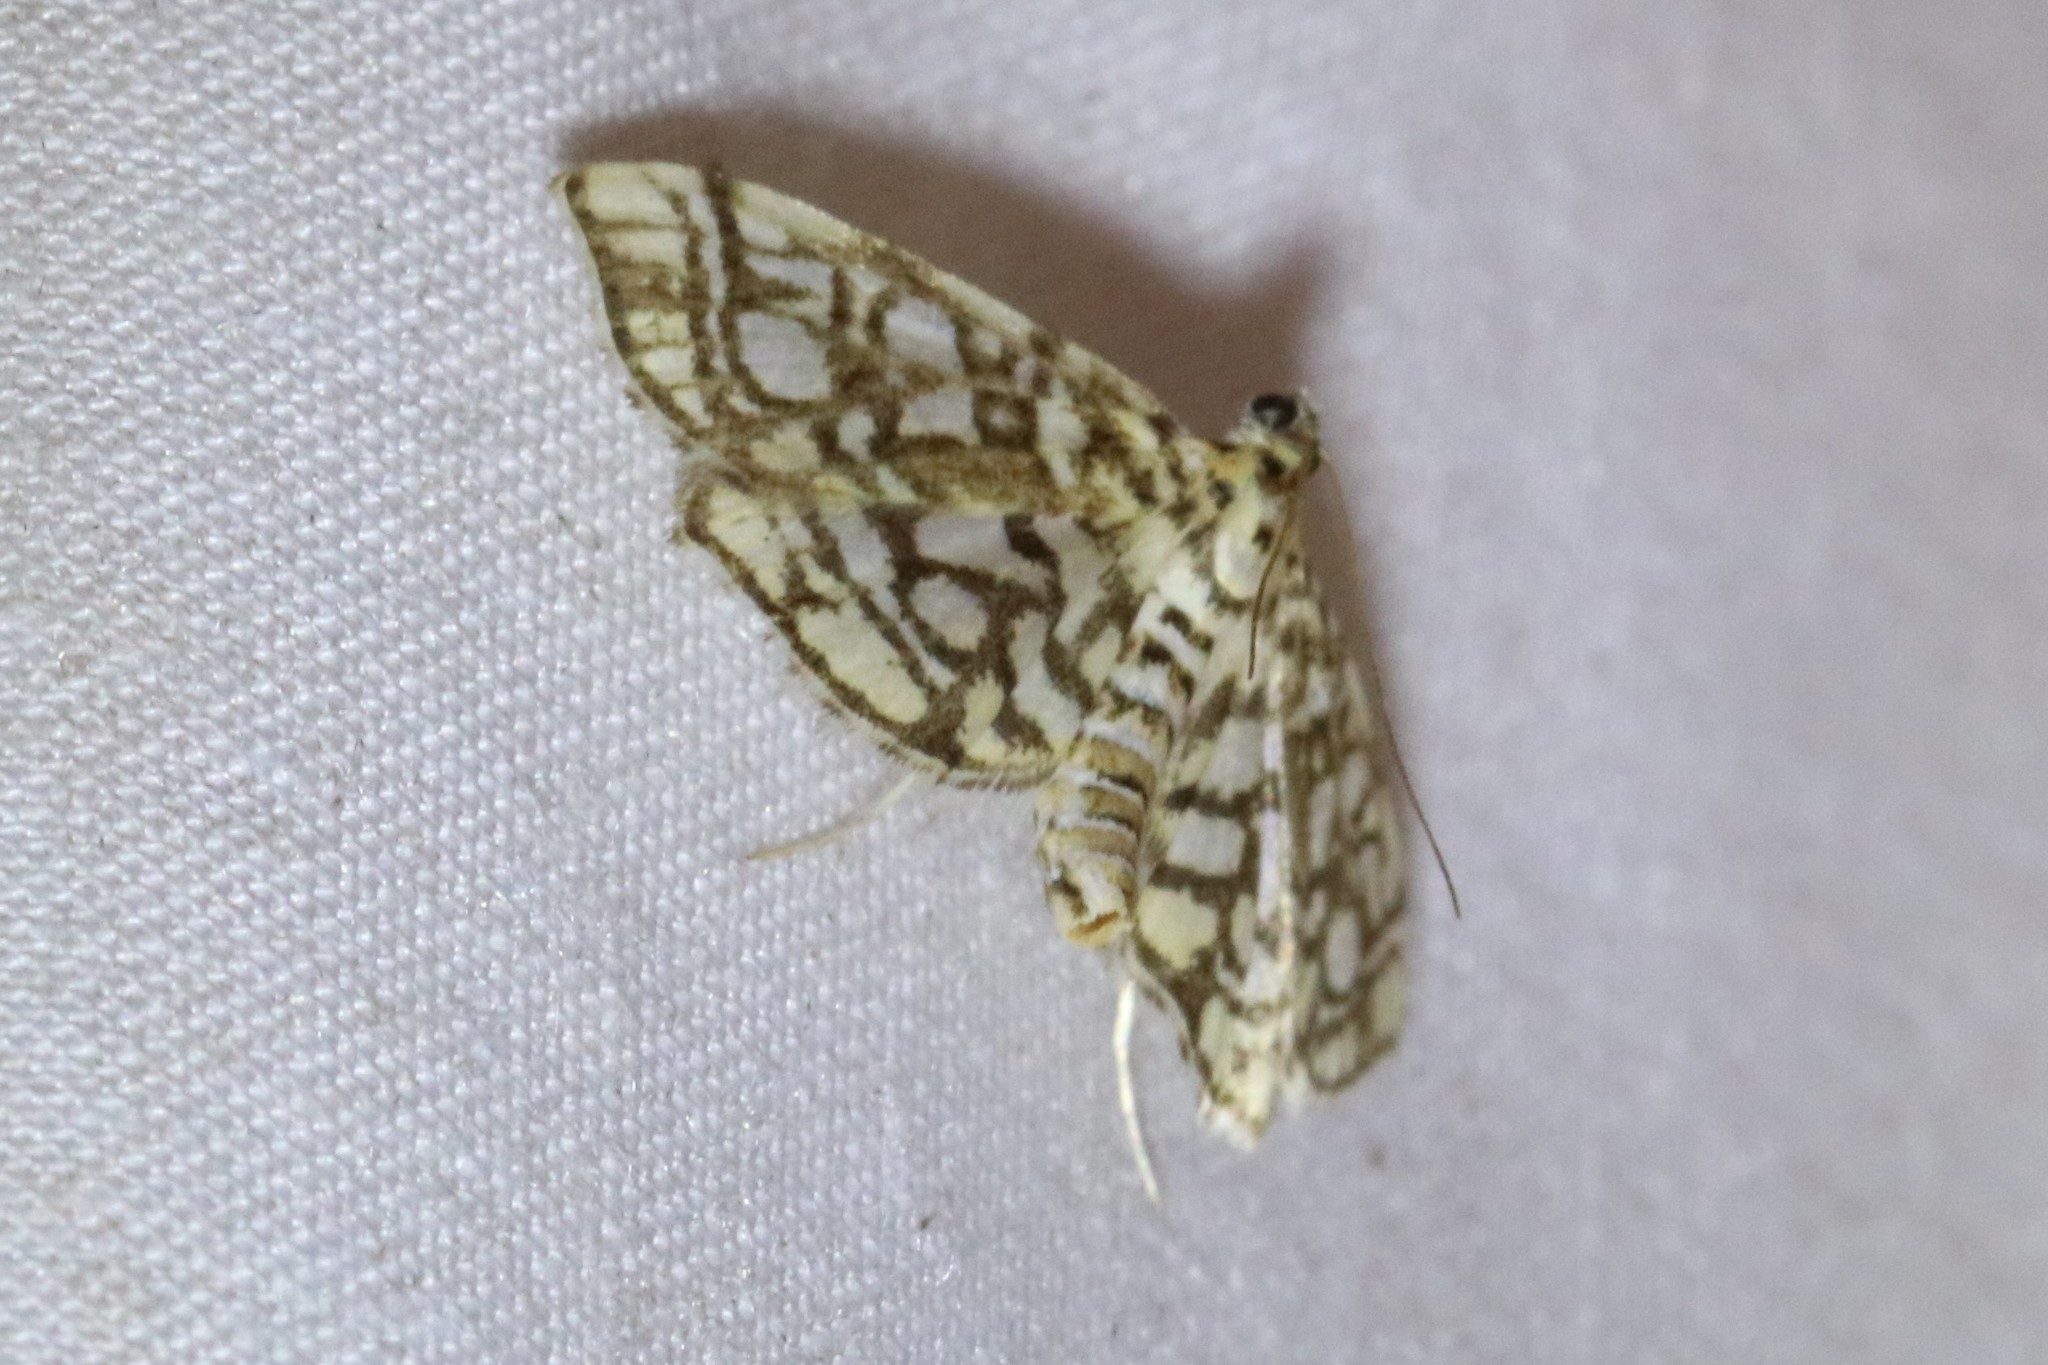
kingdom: Animalia
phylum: Arthropoda
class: Insecta
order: Lepidoptera
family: Crambidae
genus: Lygropia
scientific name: Lygropia rivulalis
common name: Bog lygropia moth
